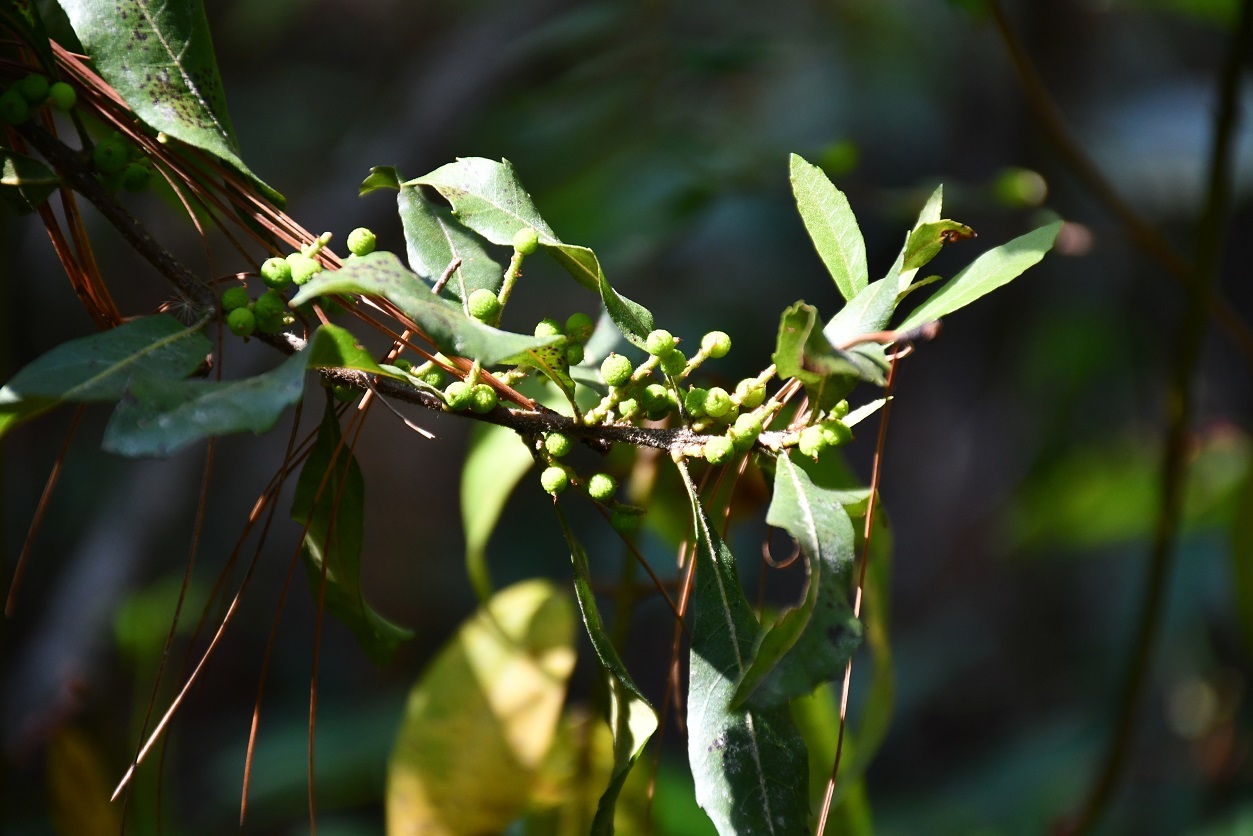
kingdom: Plantae
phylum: Tracheophyta
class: Magnoliopsida
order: Fagales
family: Myricaceae
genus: Morella
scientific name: Morella cerifera
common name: Wax myrtle
